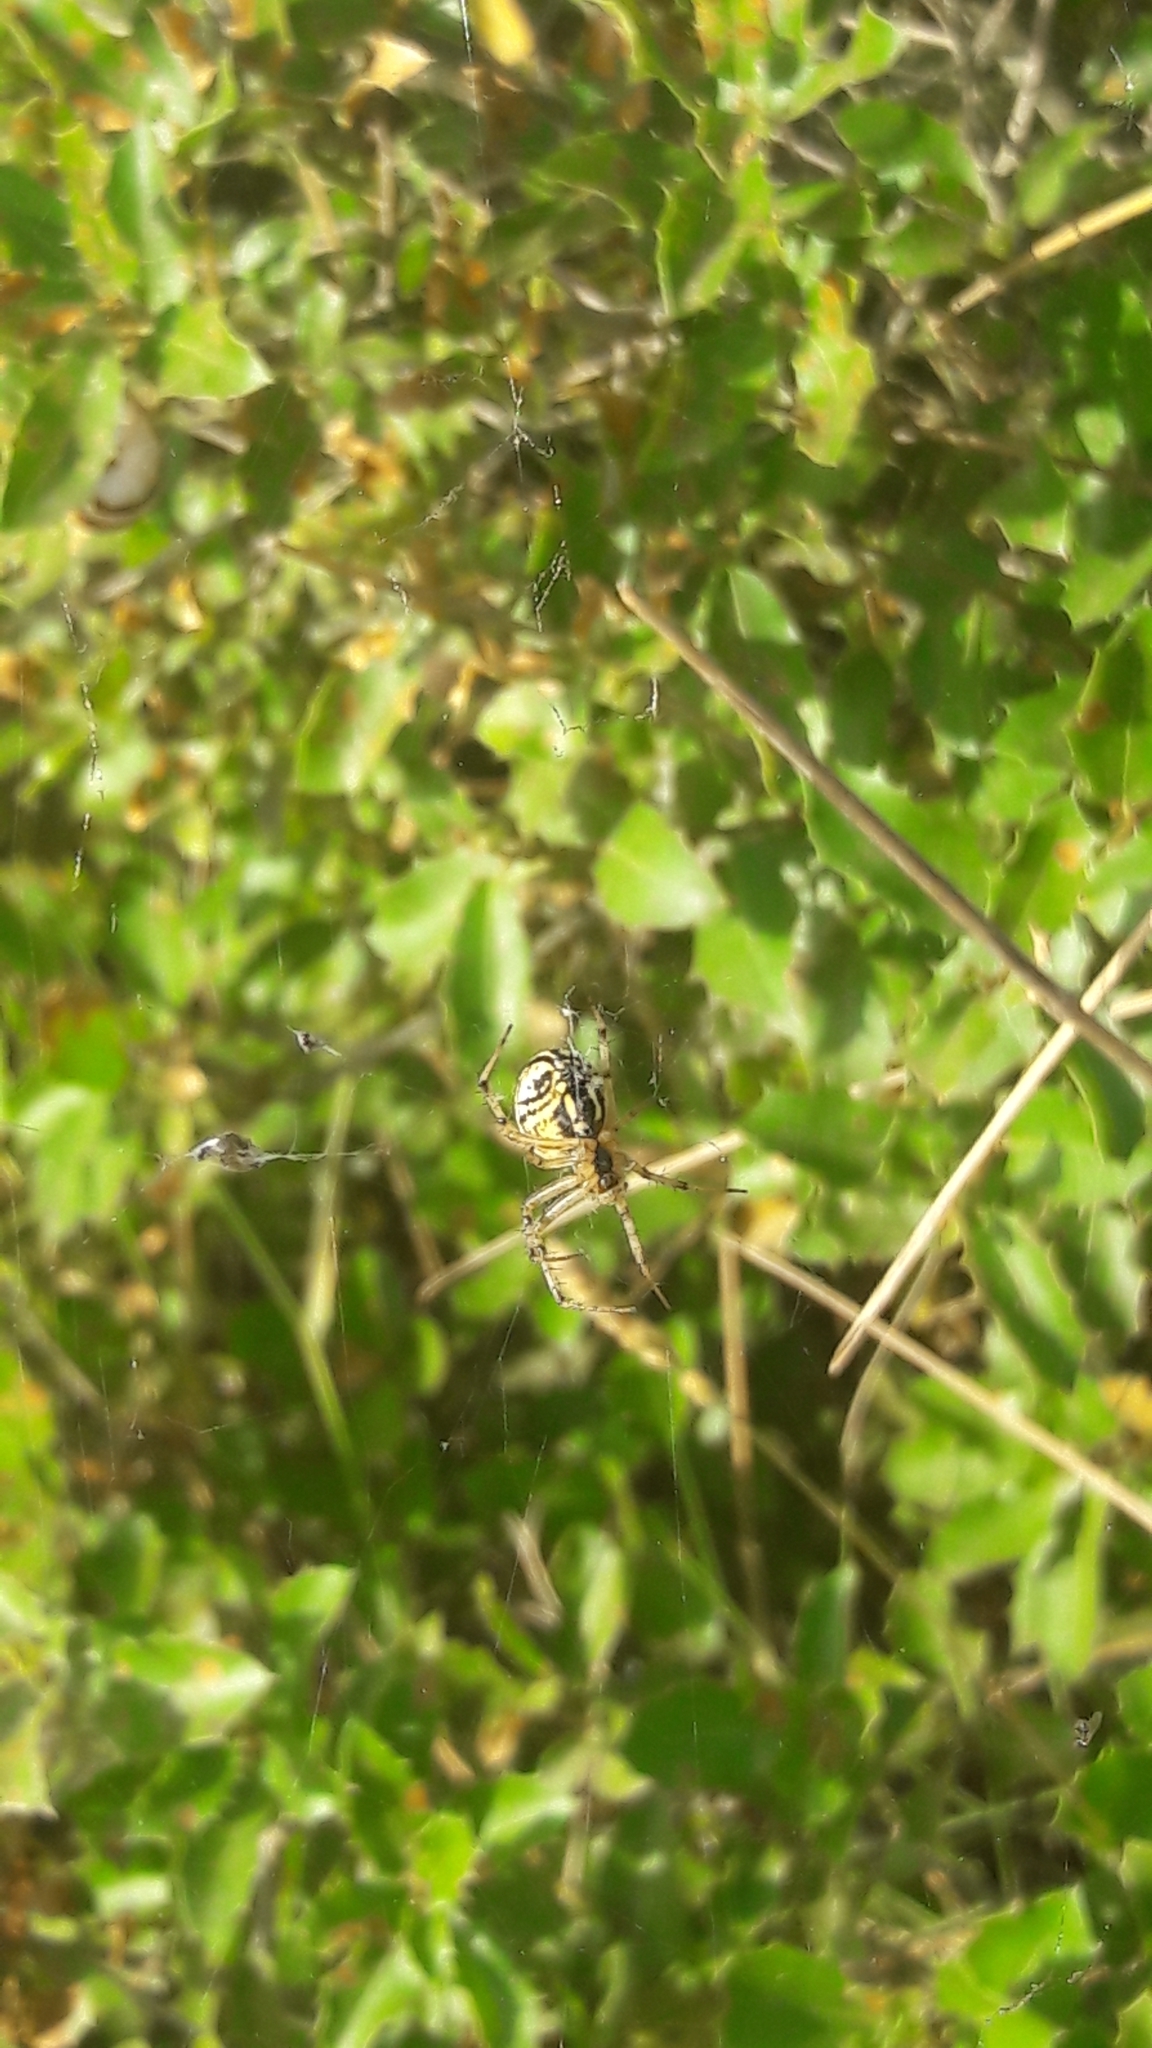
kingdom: Animalia
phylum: Arthropoda
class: Arachnida
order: Araneae
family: Araneidae
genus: Mangora
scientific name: Mangora acalypha
